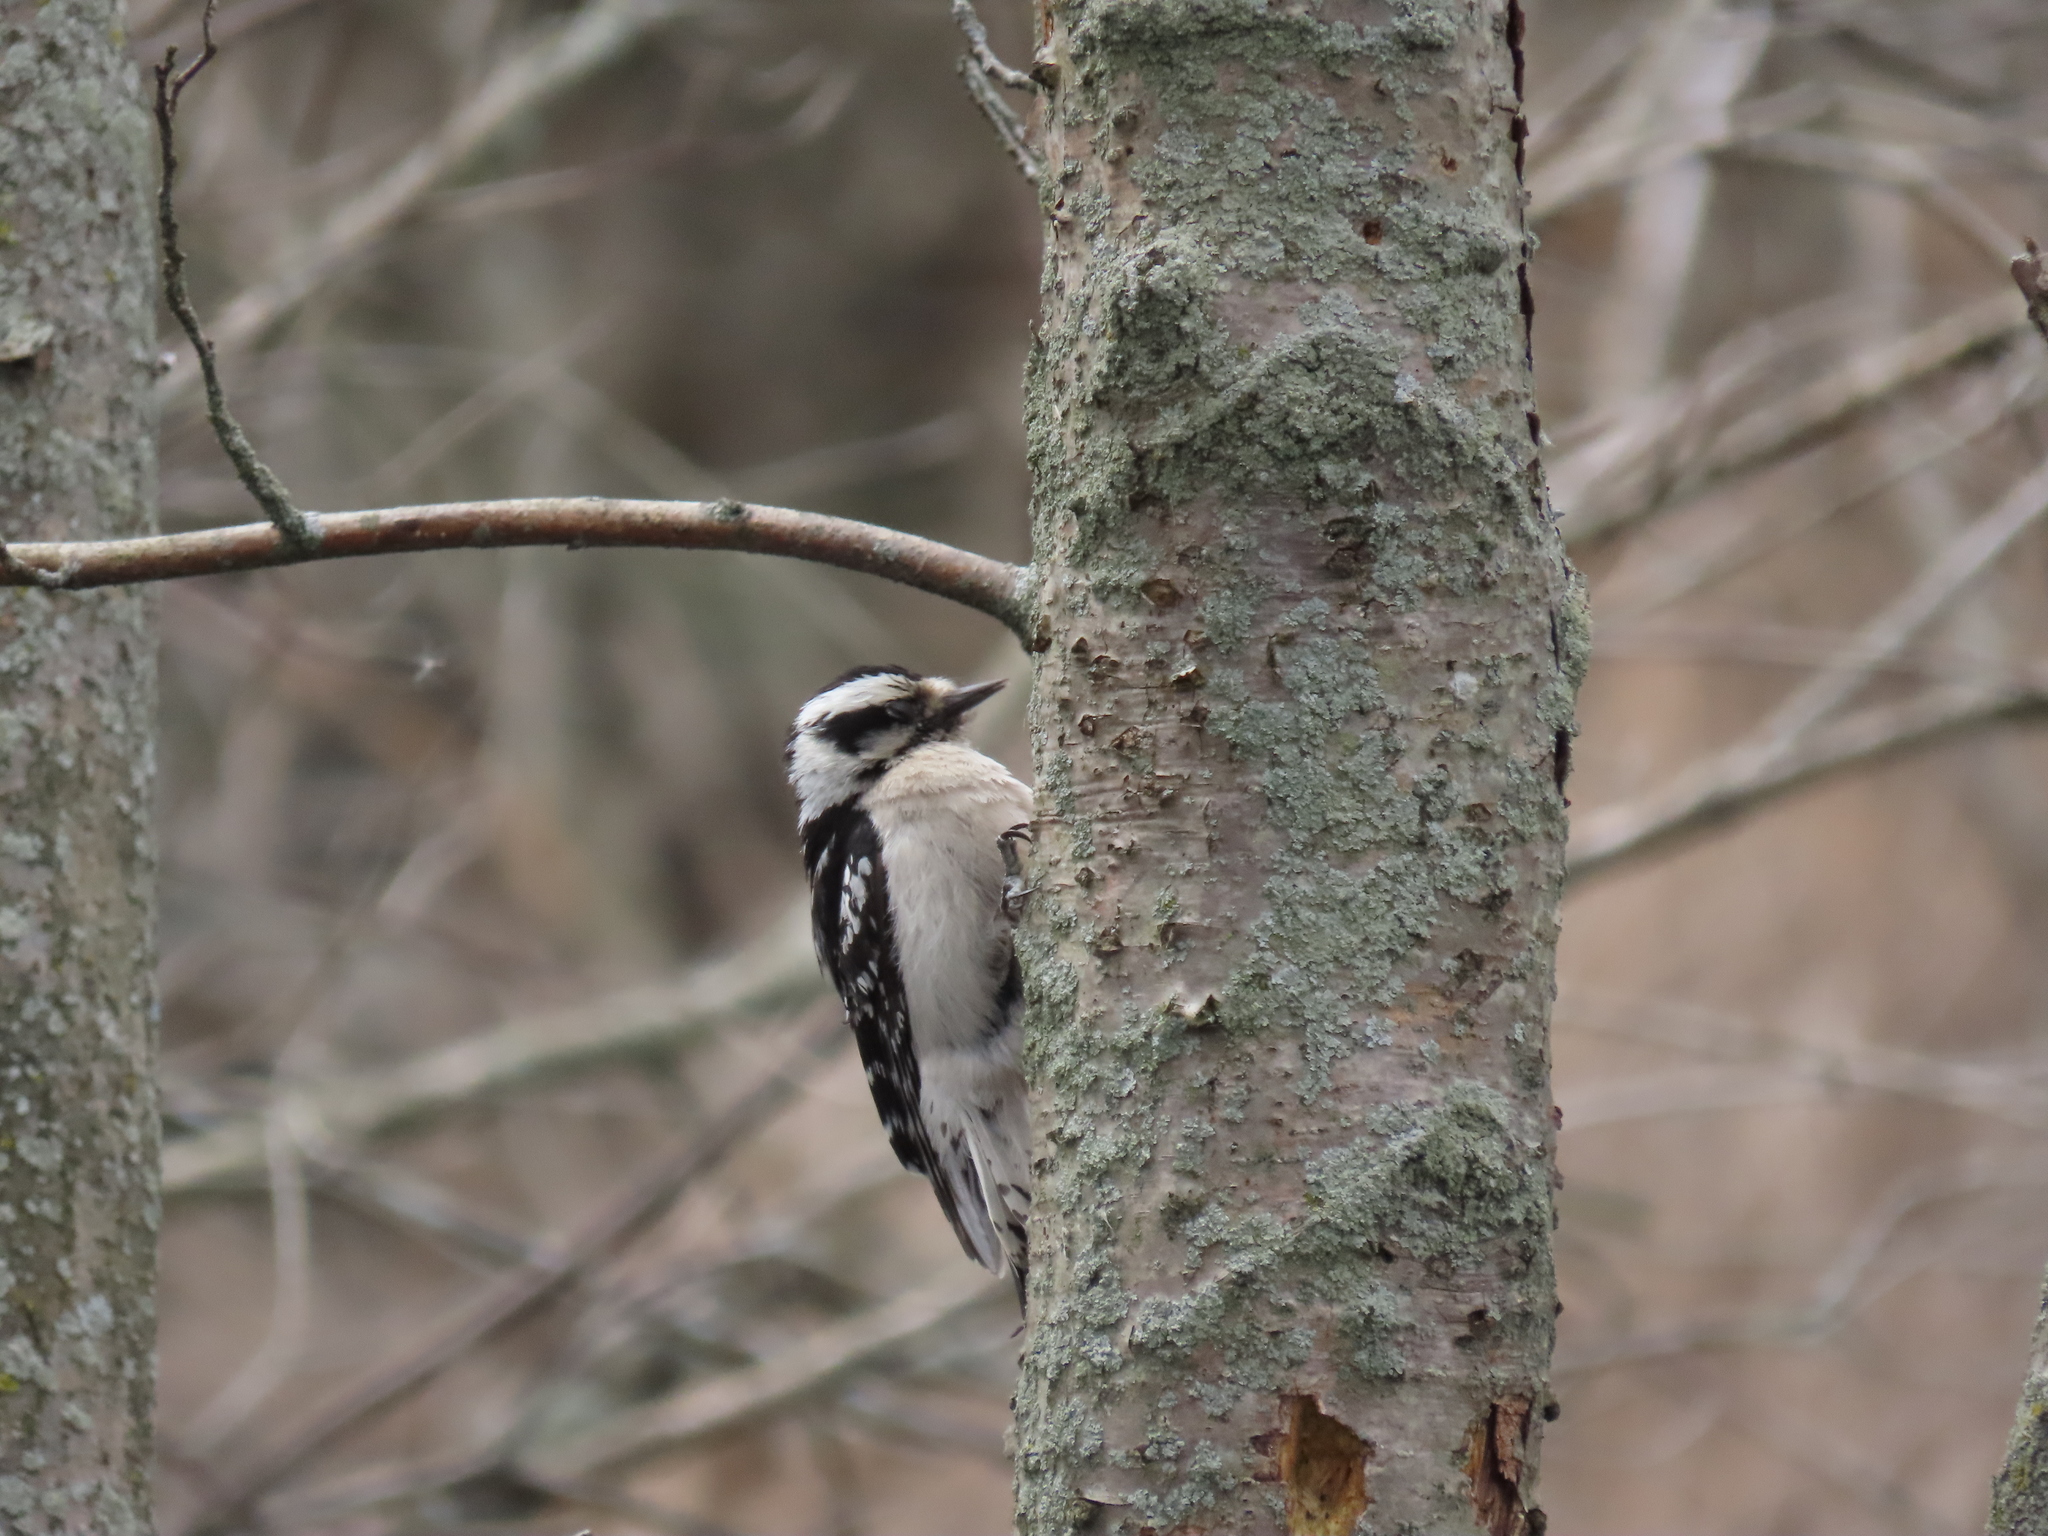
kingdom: Animalia
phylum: Chordata
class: Aves
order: Piciformes
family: Picidae
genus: Dryobates
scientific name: Dryobates pubescens
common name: Downy woodpecker
